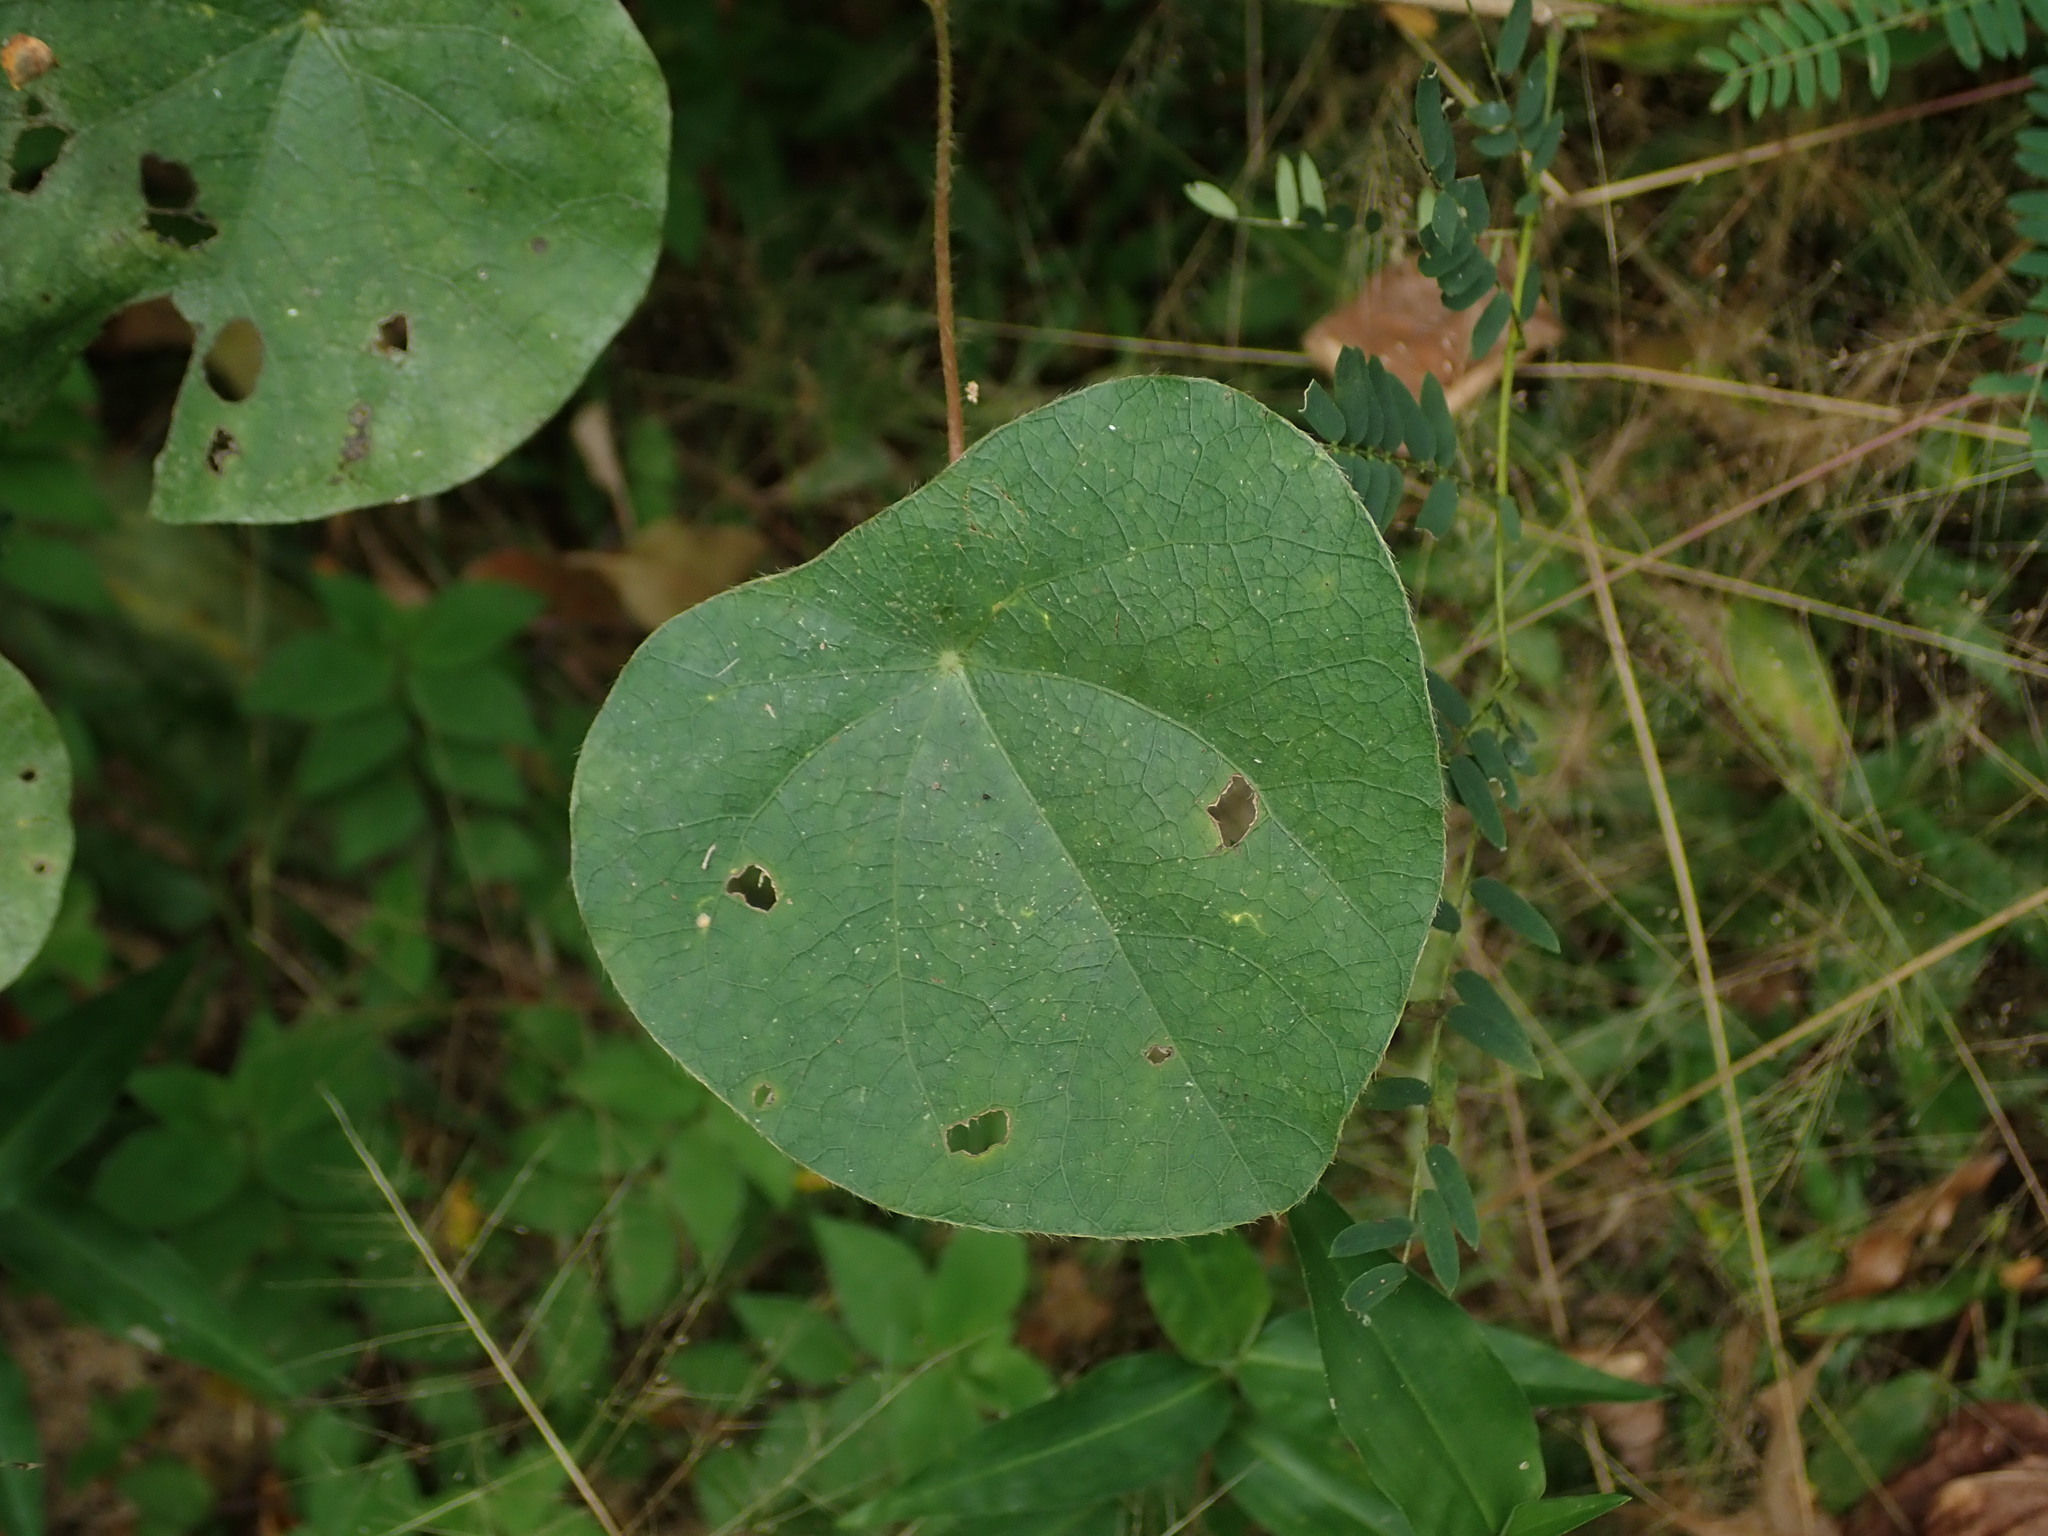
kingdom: Plantae
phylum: Tracheophyta
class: Magnoliopsida
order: Ranunculales
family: Menispermaceae
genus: Cissampelos
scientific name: Cissampelos pareira
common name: Velvetleaf
